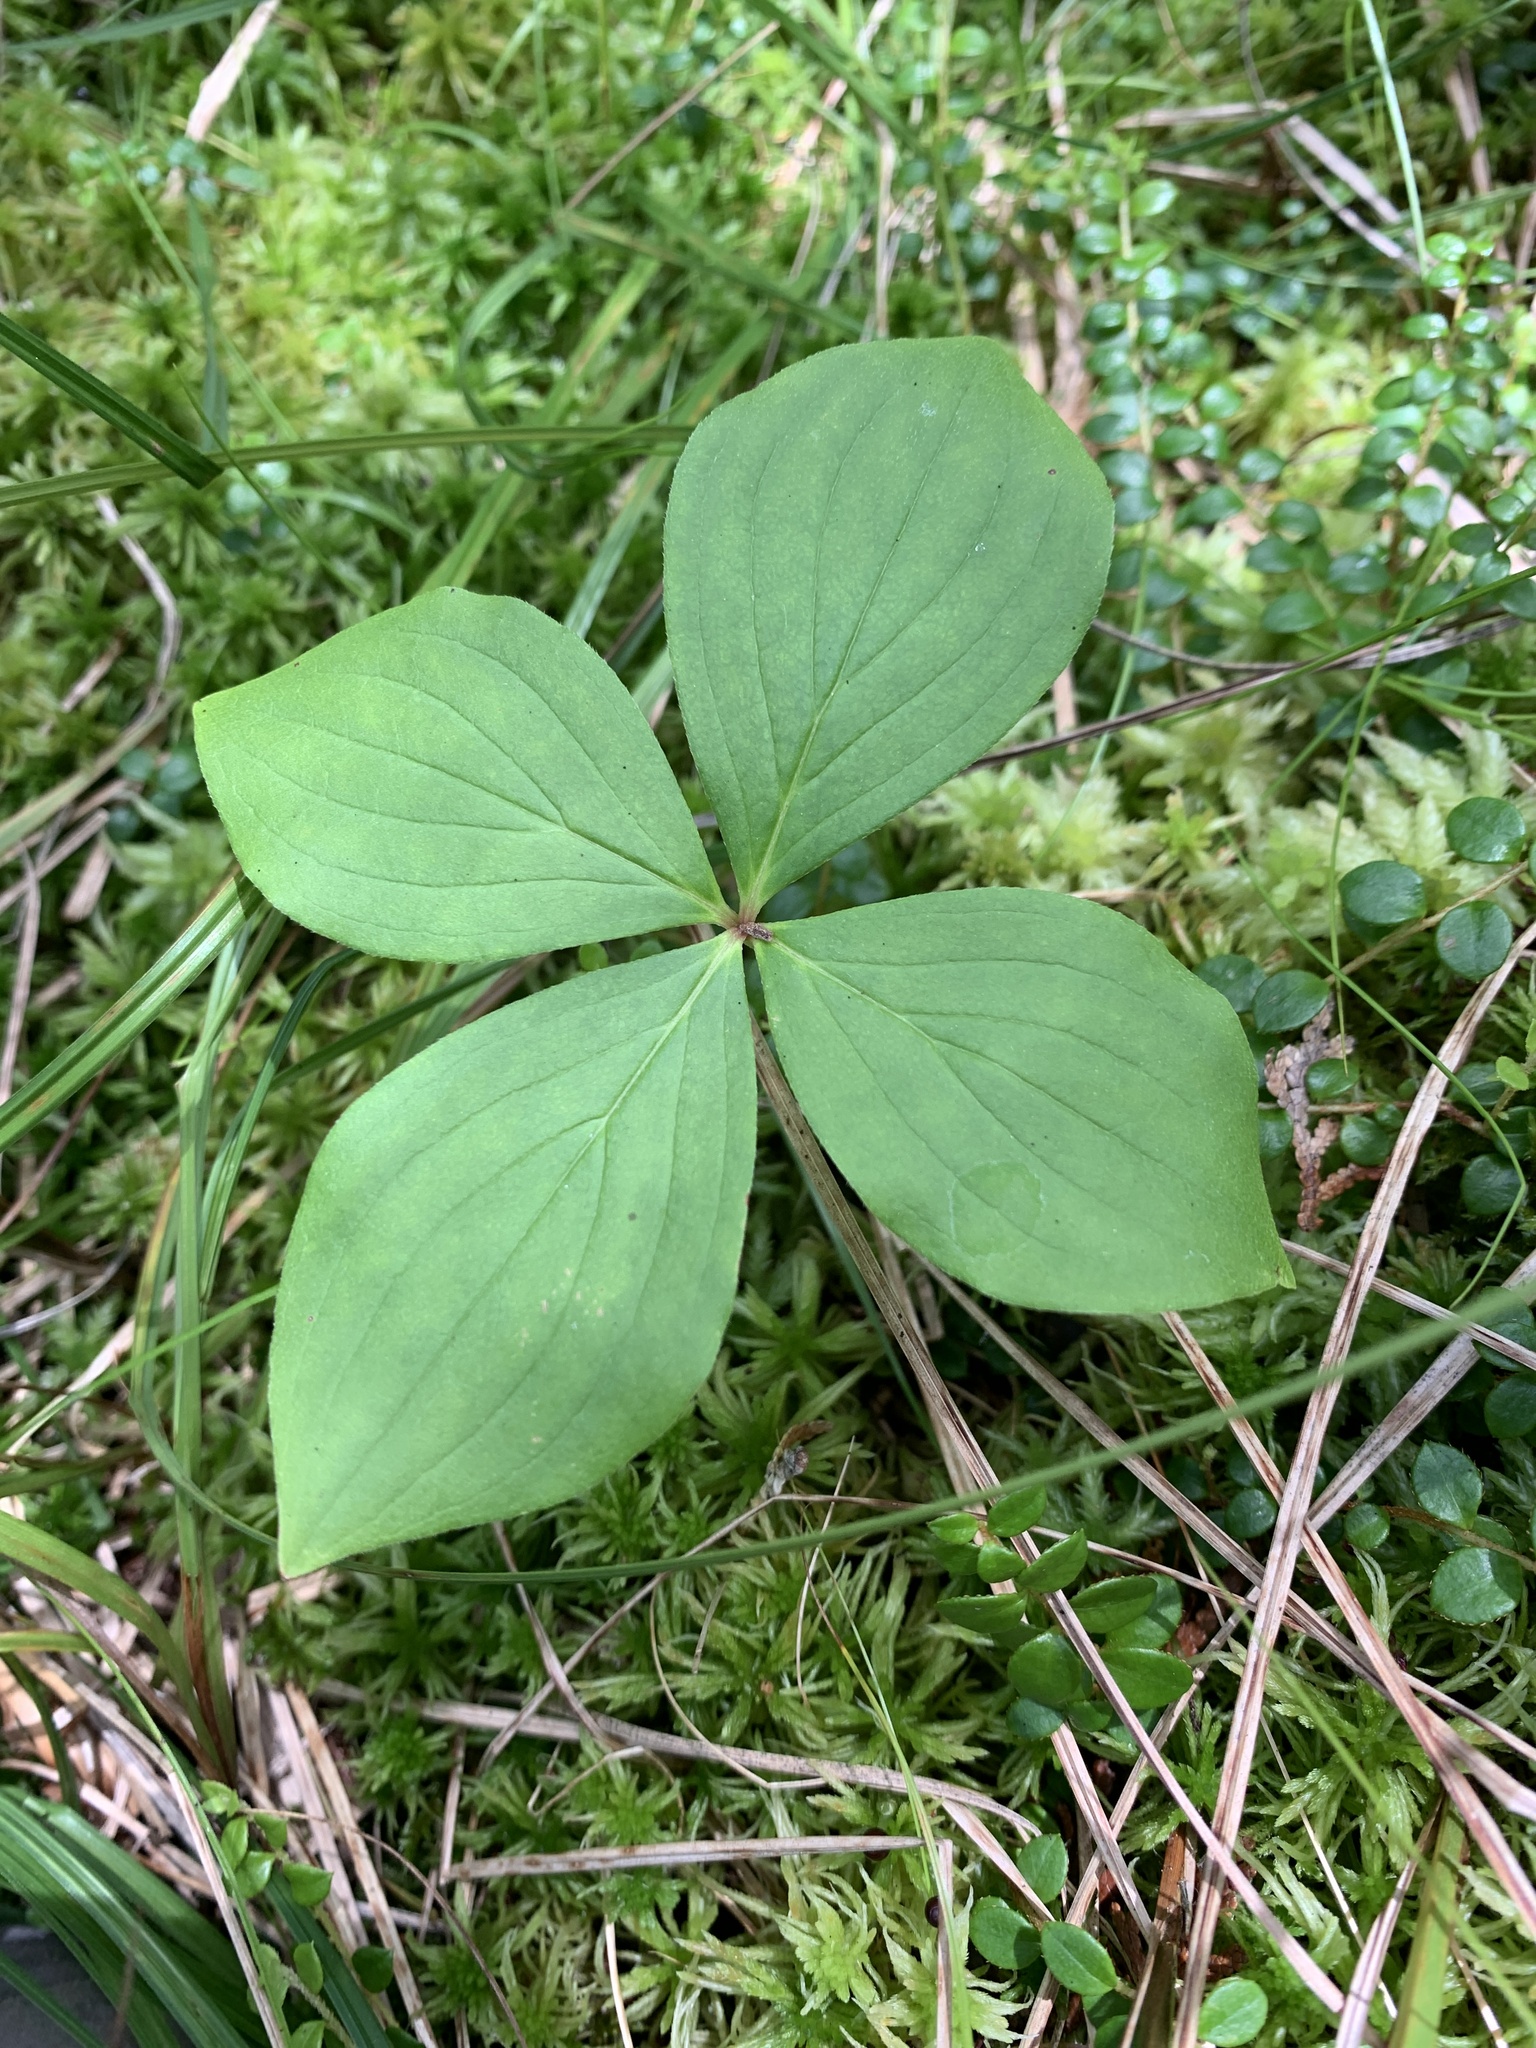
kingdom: Plantae
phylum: Tracheophyta
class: Magnoliopsida
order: Cornales
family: Cornaceae
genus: Cornus
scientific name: Cornus canadensis
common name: Creeping dogwood
